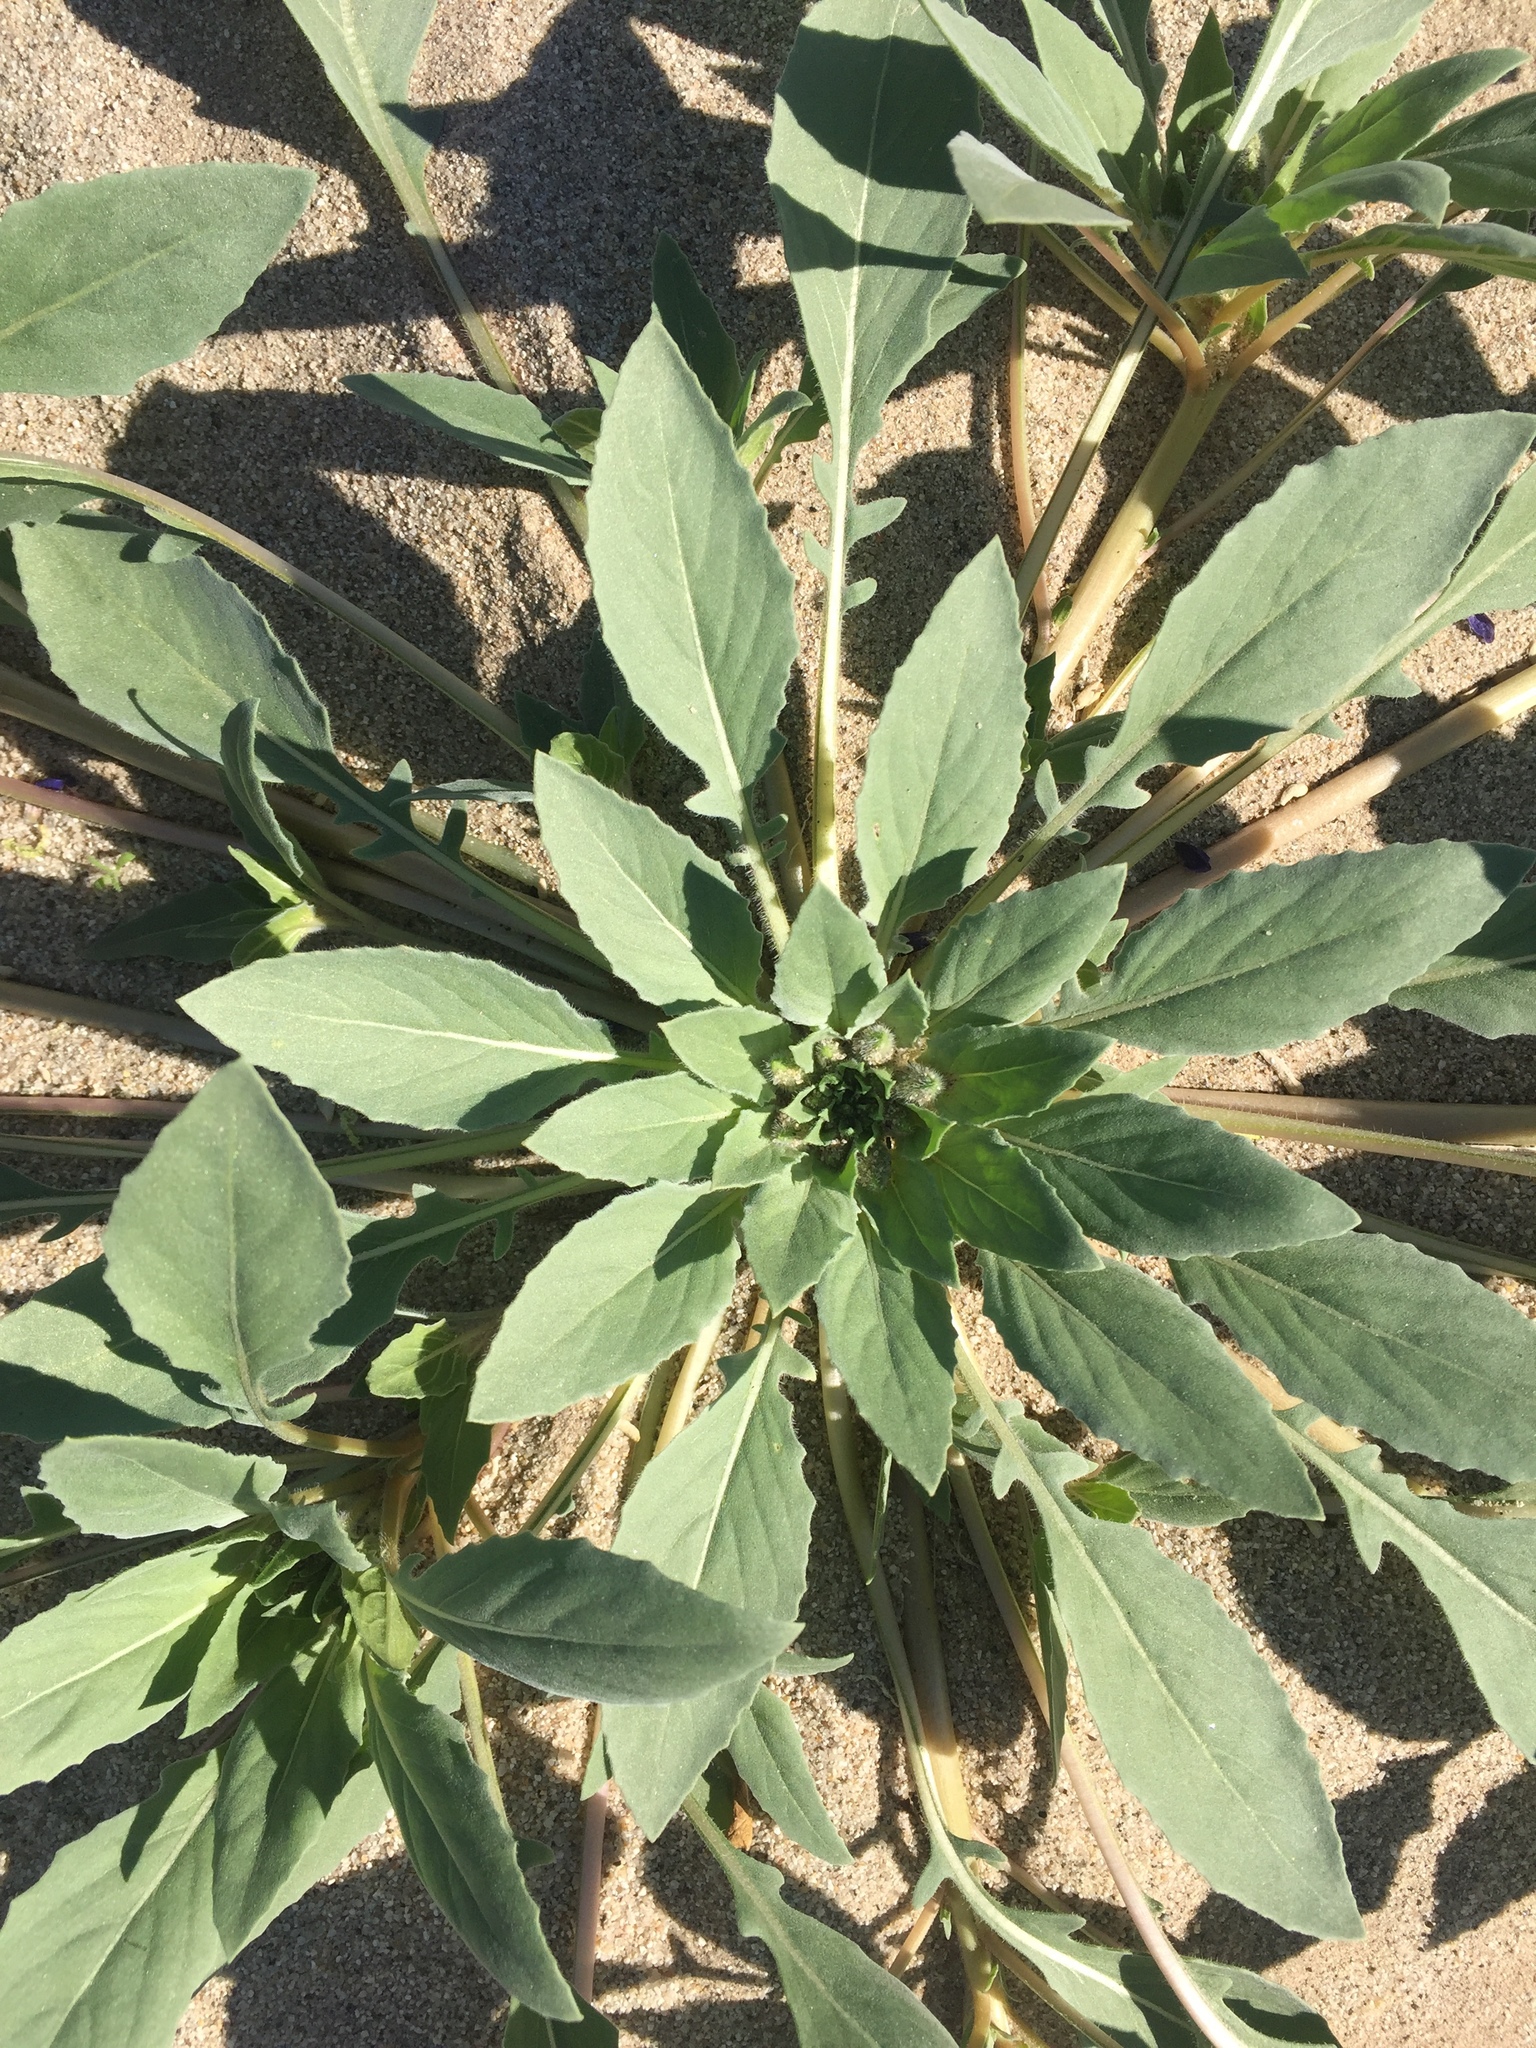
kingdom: Plantae
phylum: Tracheophyta
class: Magnoliopsida
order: Myrtales
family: Onagraceae
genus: Oenothera
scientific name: Oenothera deltoides
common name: Basket evening-primrose
